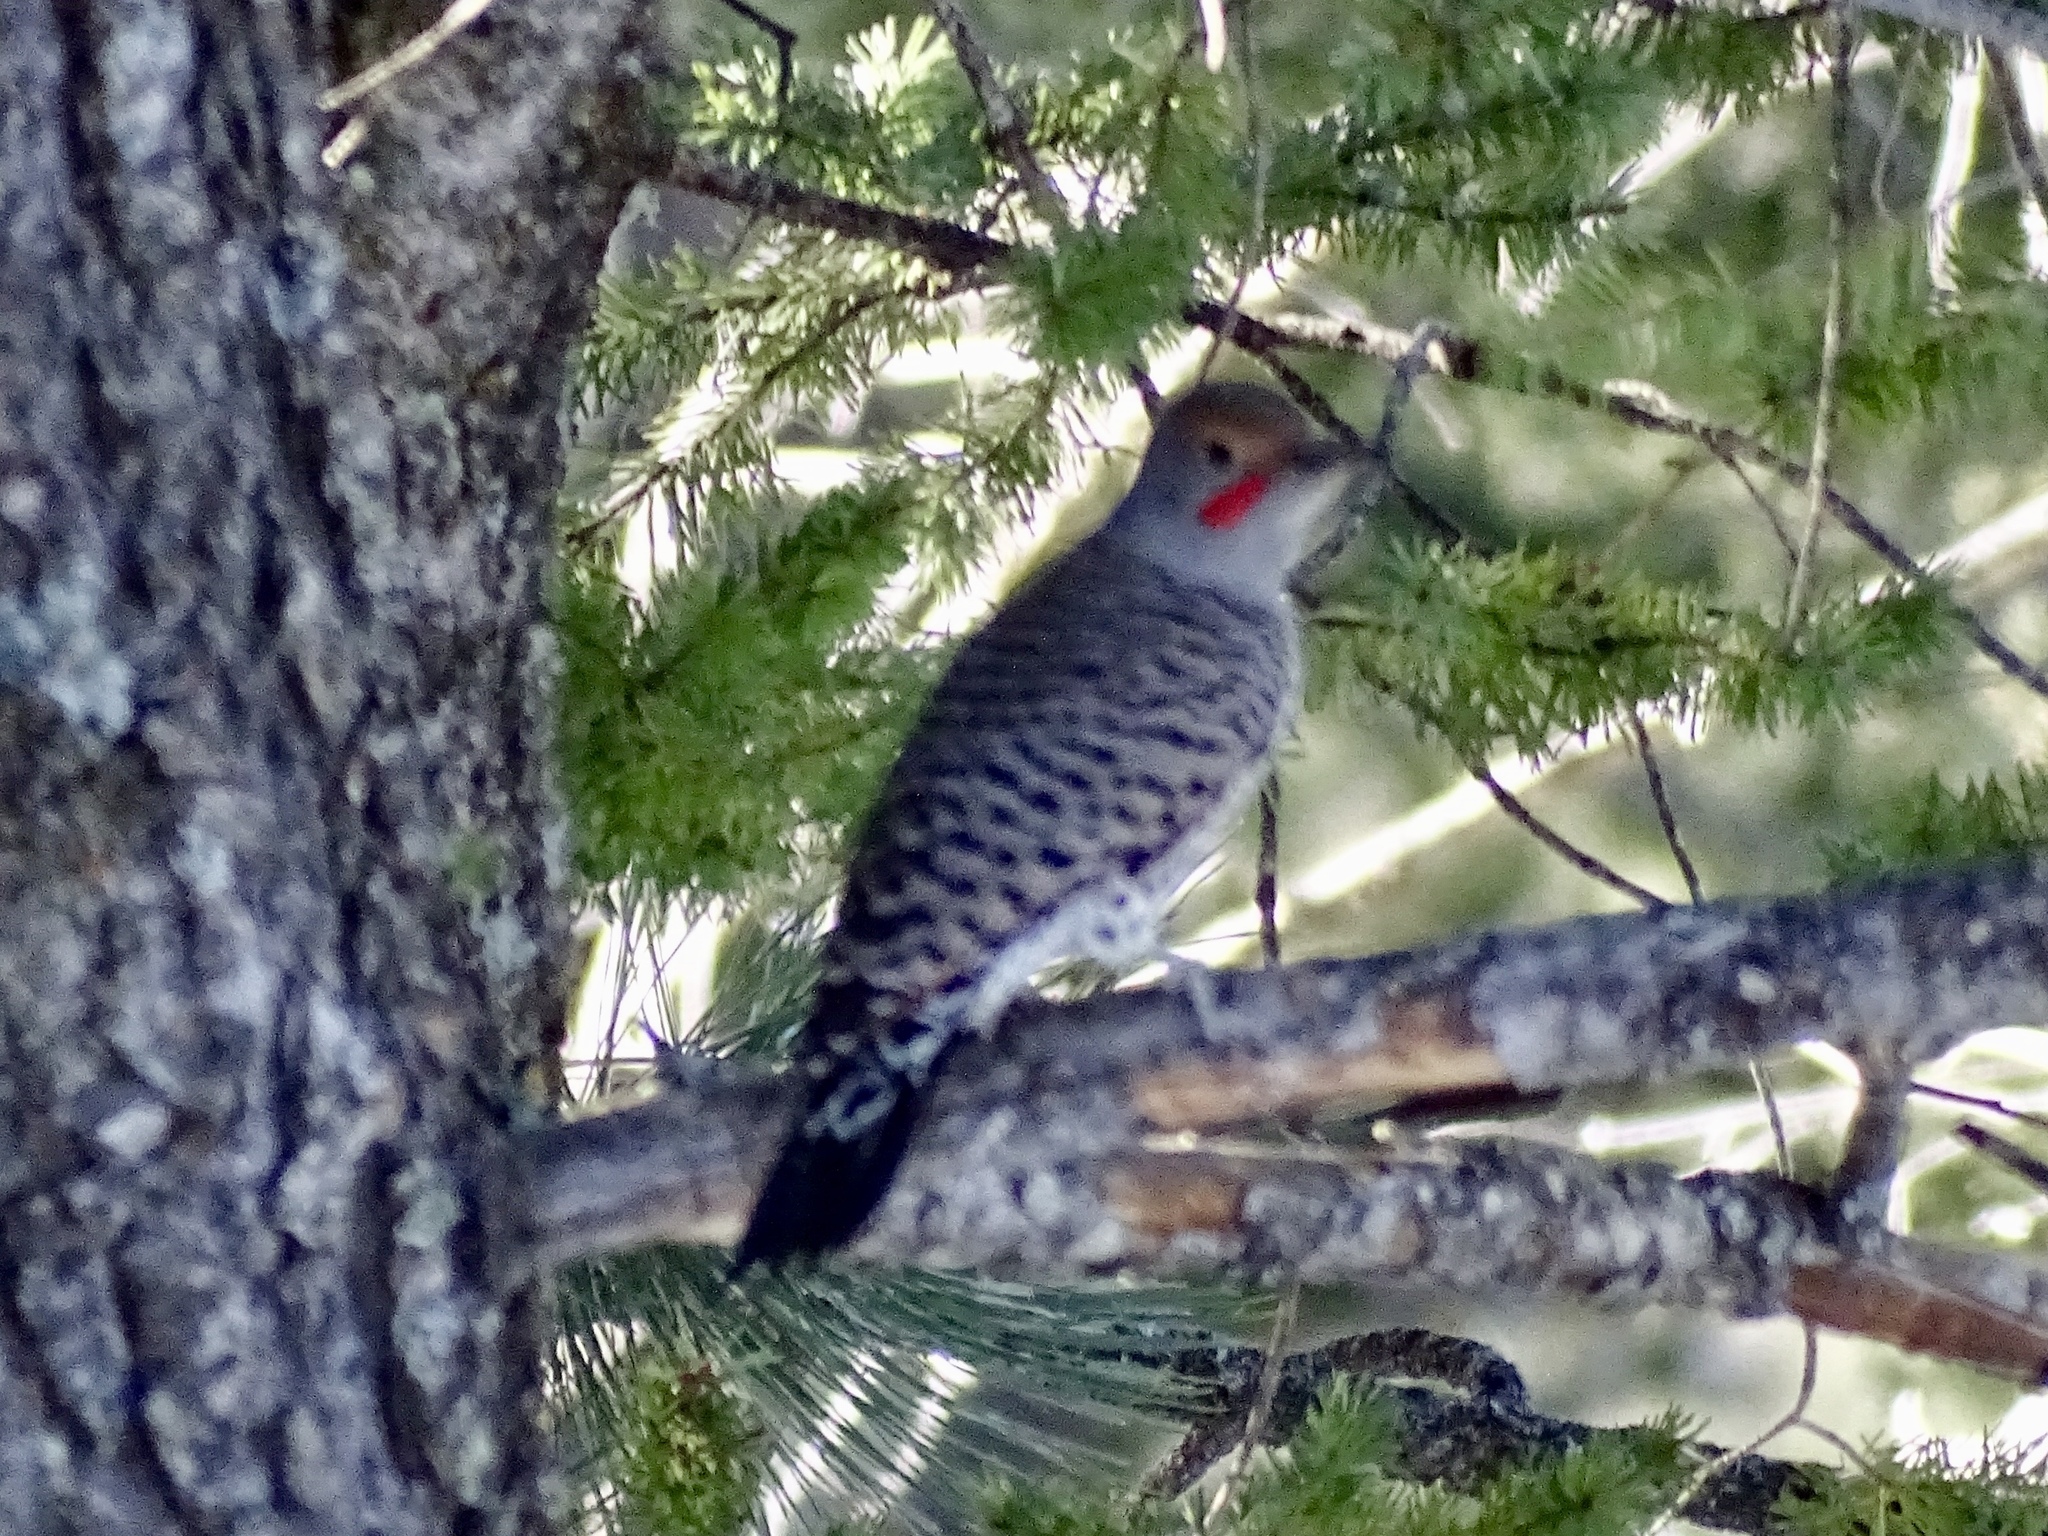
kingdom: Animalia
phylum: Chordata
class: Aves
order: Piciformes
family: Picidae
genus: Colaptes
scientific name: Colaptes auratus
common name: Northern flicker
